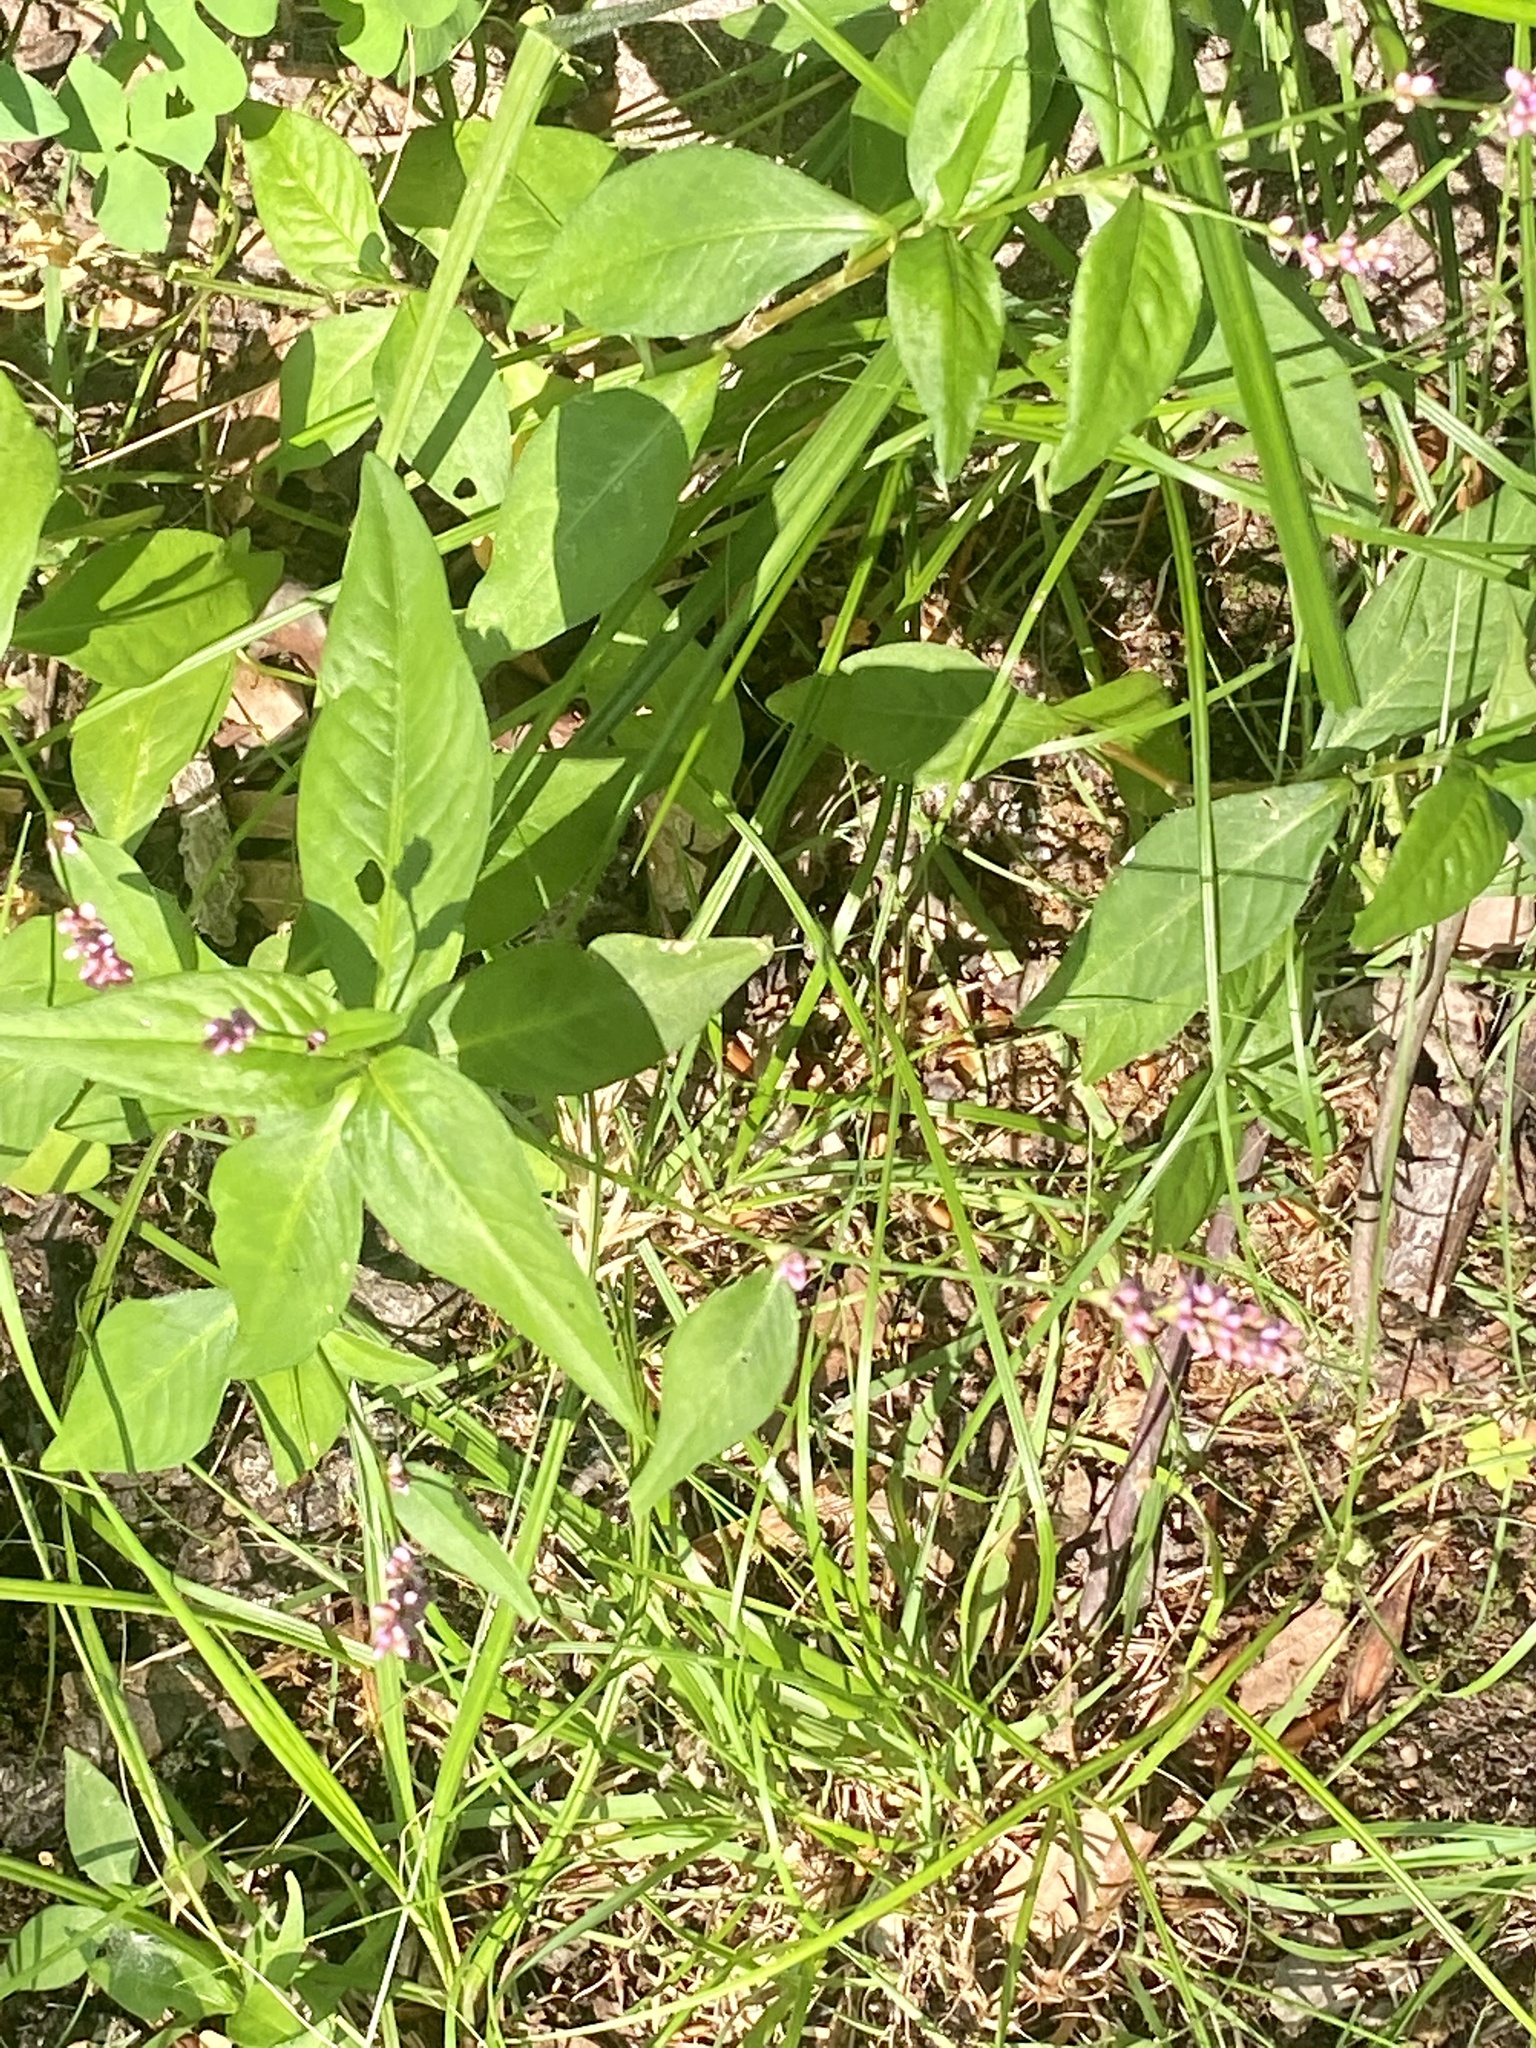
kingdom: Plantae
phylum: Tracheophyta
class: Magnoliopsida
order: Caryophyllales
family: Polygonaceae
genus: Persicaria
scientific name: Persicaria longiseta
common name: Bristly lady's-thumb
